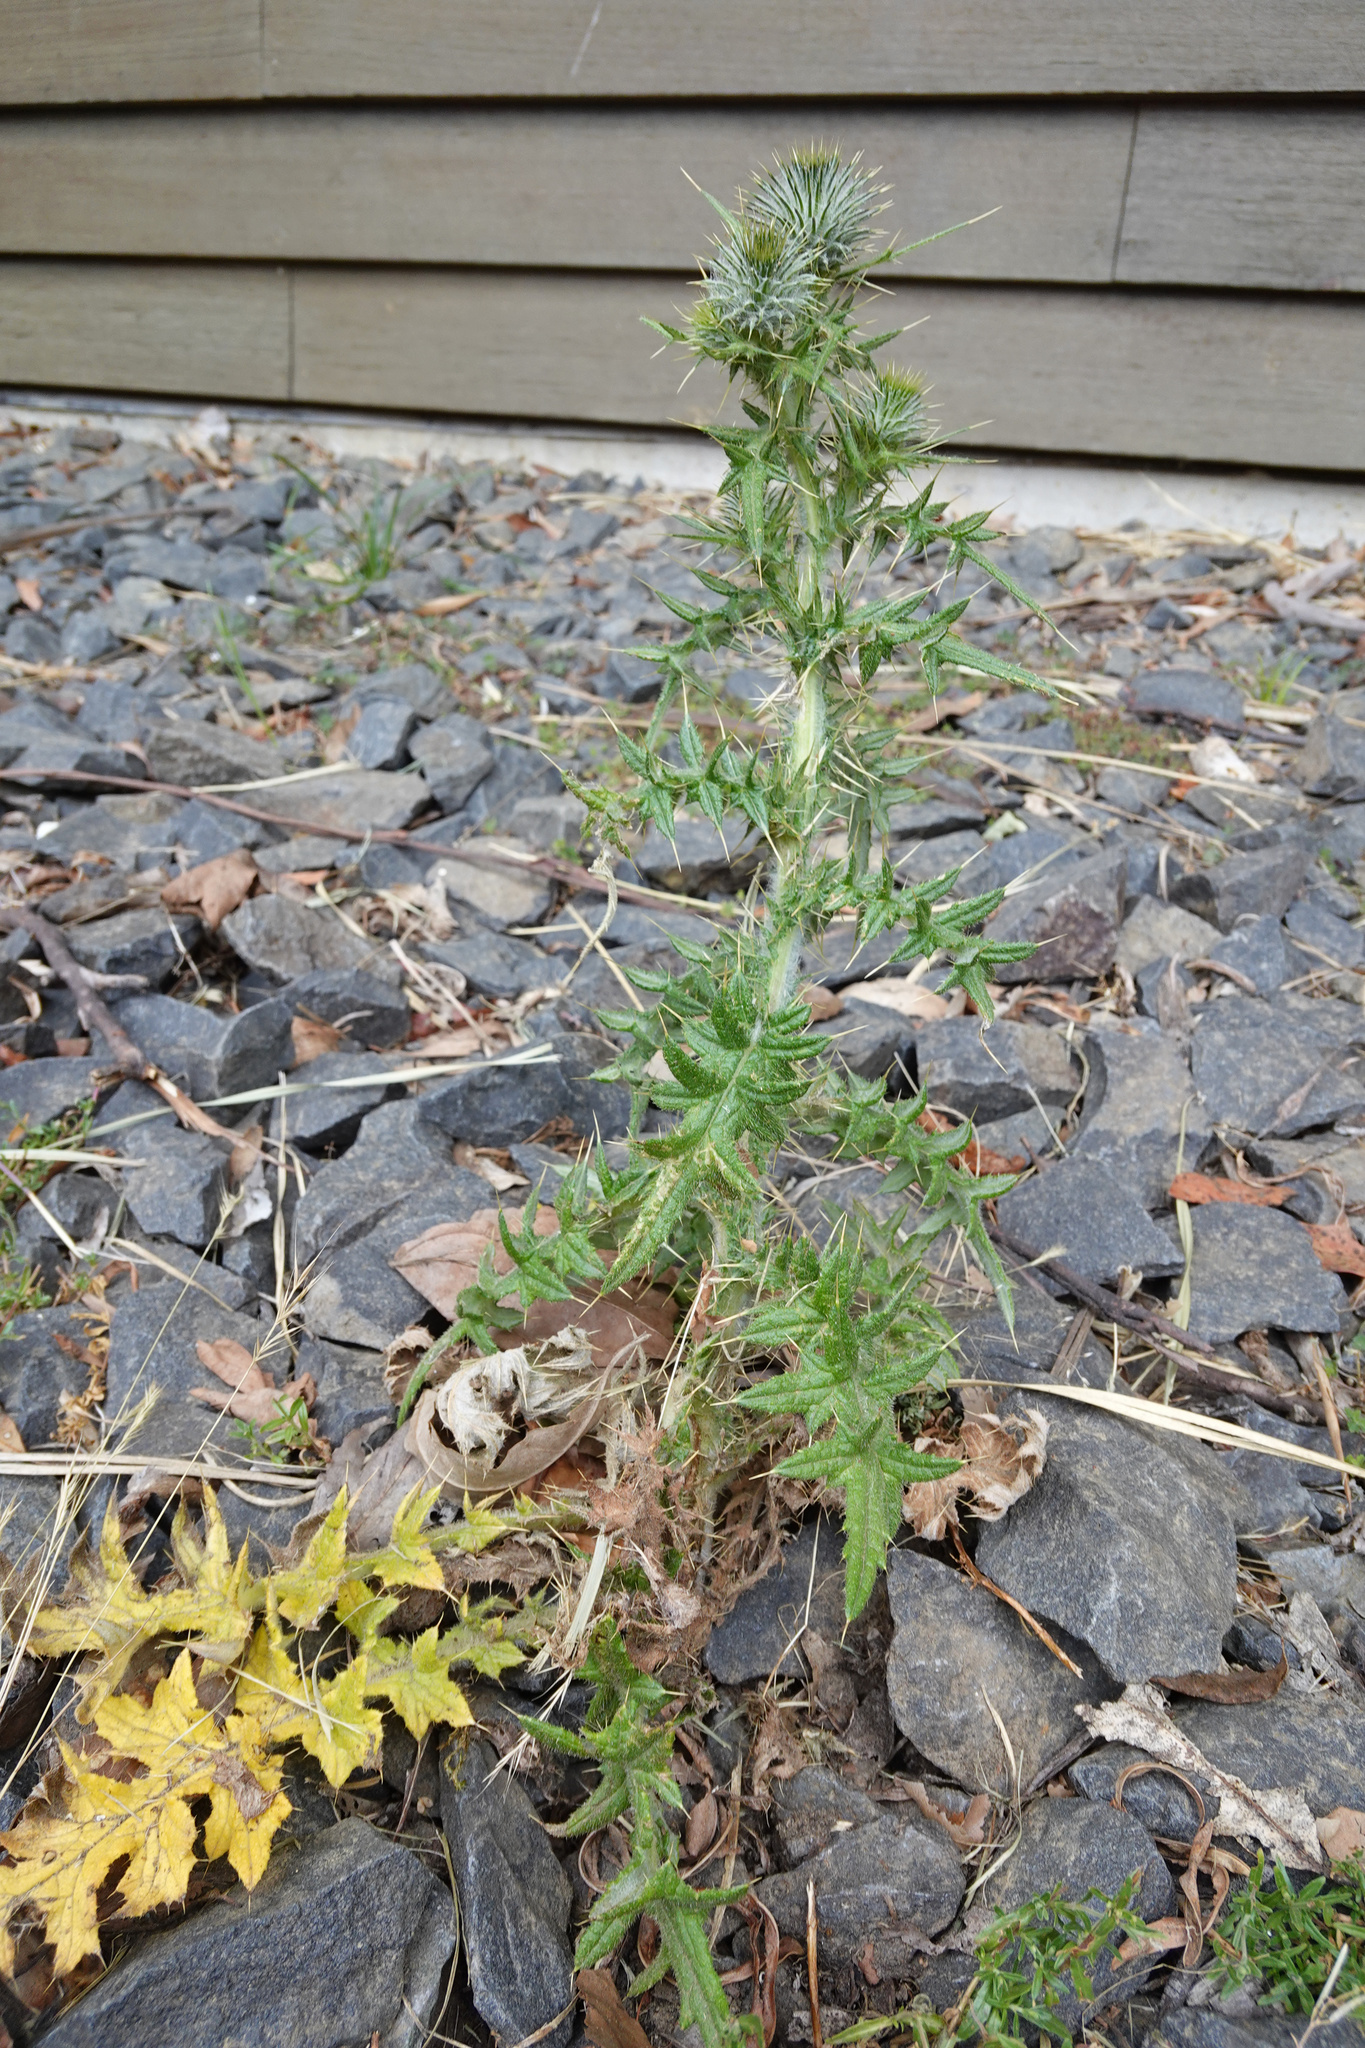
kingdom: Plantae
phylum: Tracheophyta
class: Magnoliopsida
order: Asterales
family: Asteraceae
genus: Cirsium
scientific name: Cirsium vulgare
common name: Bull thistle
